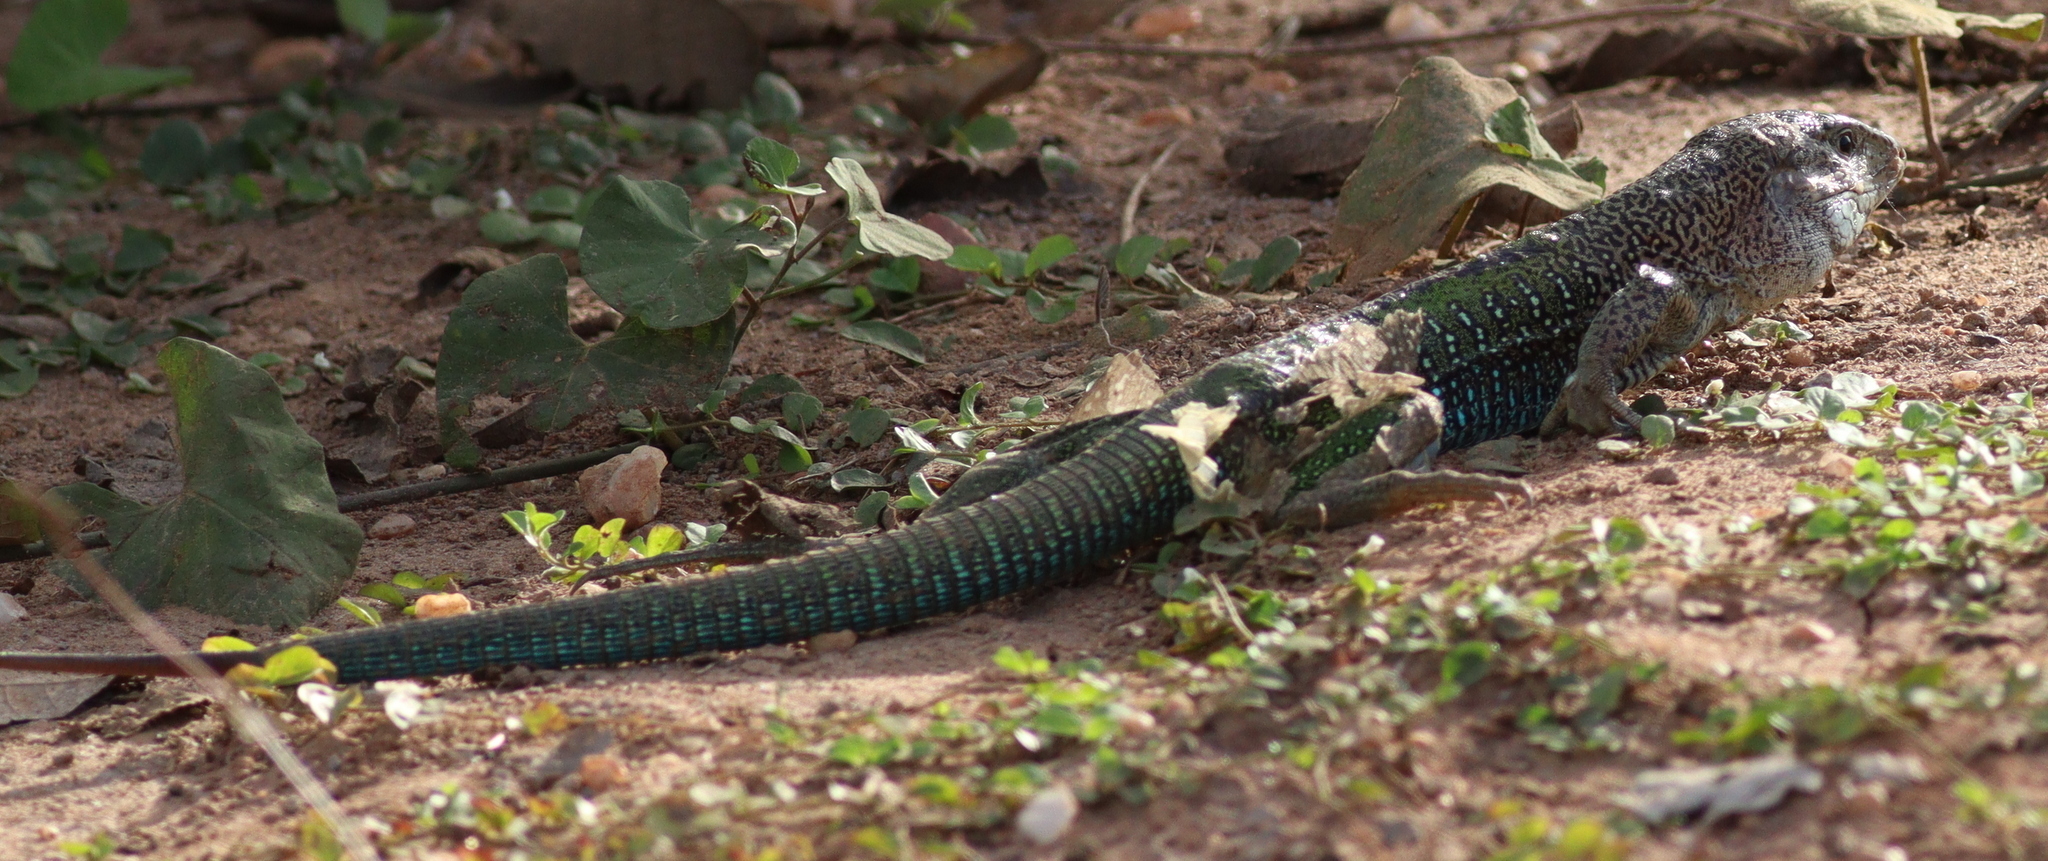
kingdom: Animalia
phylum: Chordata
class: Squamata
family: Teiidae
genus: Ameiva
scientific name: Ameiva ameiva
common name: Giant ameiva
